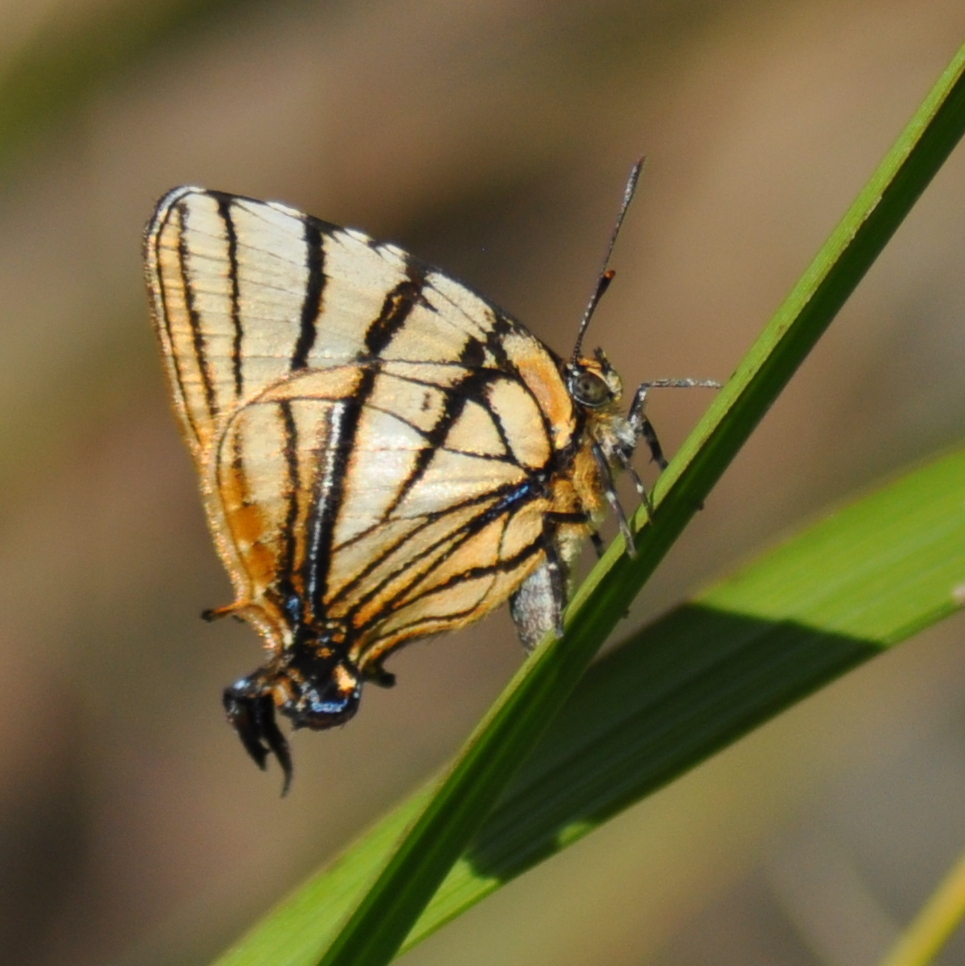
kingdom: Animalia
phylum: Arthropoda
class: Insecta
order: Lepidoptera
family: Lycaenidae
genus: Arawacus
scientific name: Arawacus melibaeus
